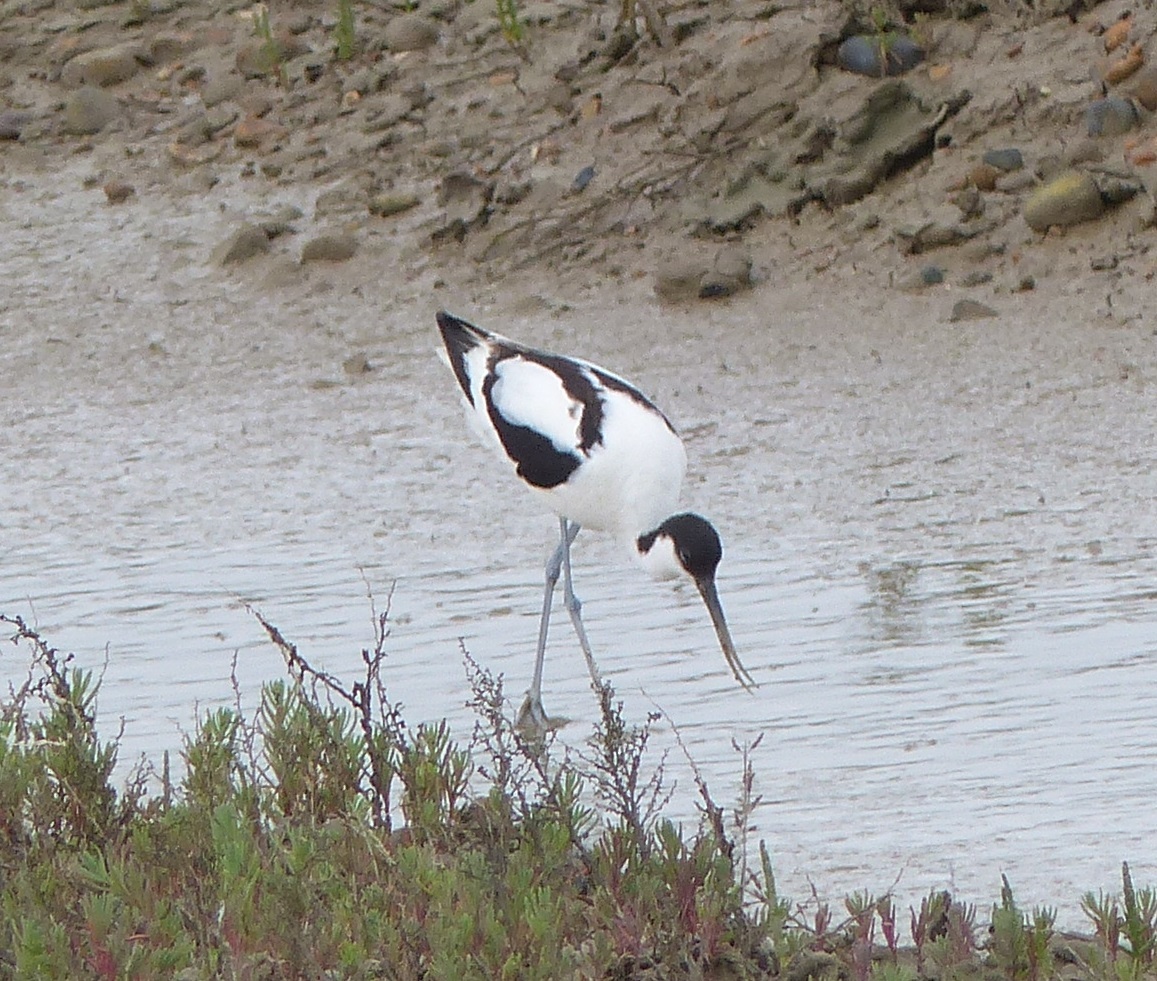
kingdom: Animalia
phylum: Chordata
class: Aves
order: Charadriiformes
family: Recurvirostridae
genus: Recurvirostra
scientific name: Recurvirostra avosetta
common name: Pied avocet
